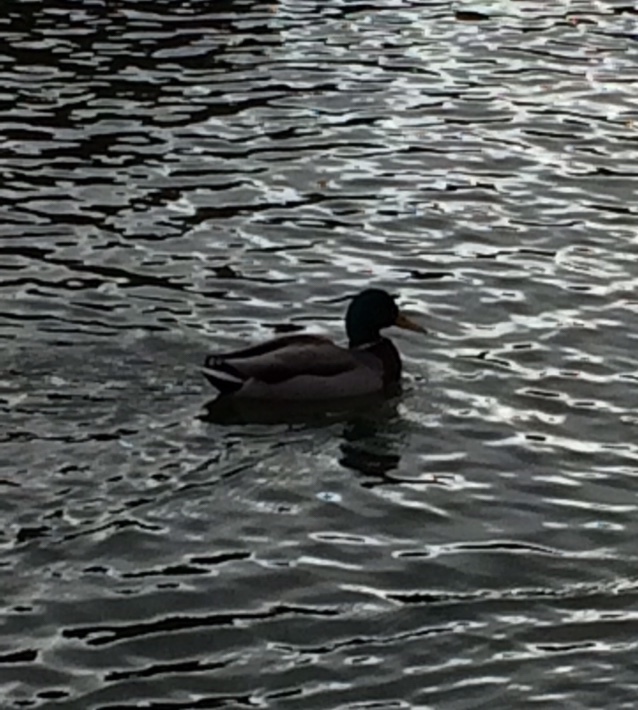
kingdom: Animalia
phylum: Chordata
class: Aves
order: Anseriformes
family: Anatidae
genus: Anas
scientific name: Anas platyrhynchos
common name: Mallard
